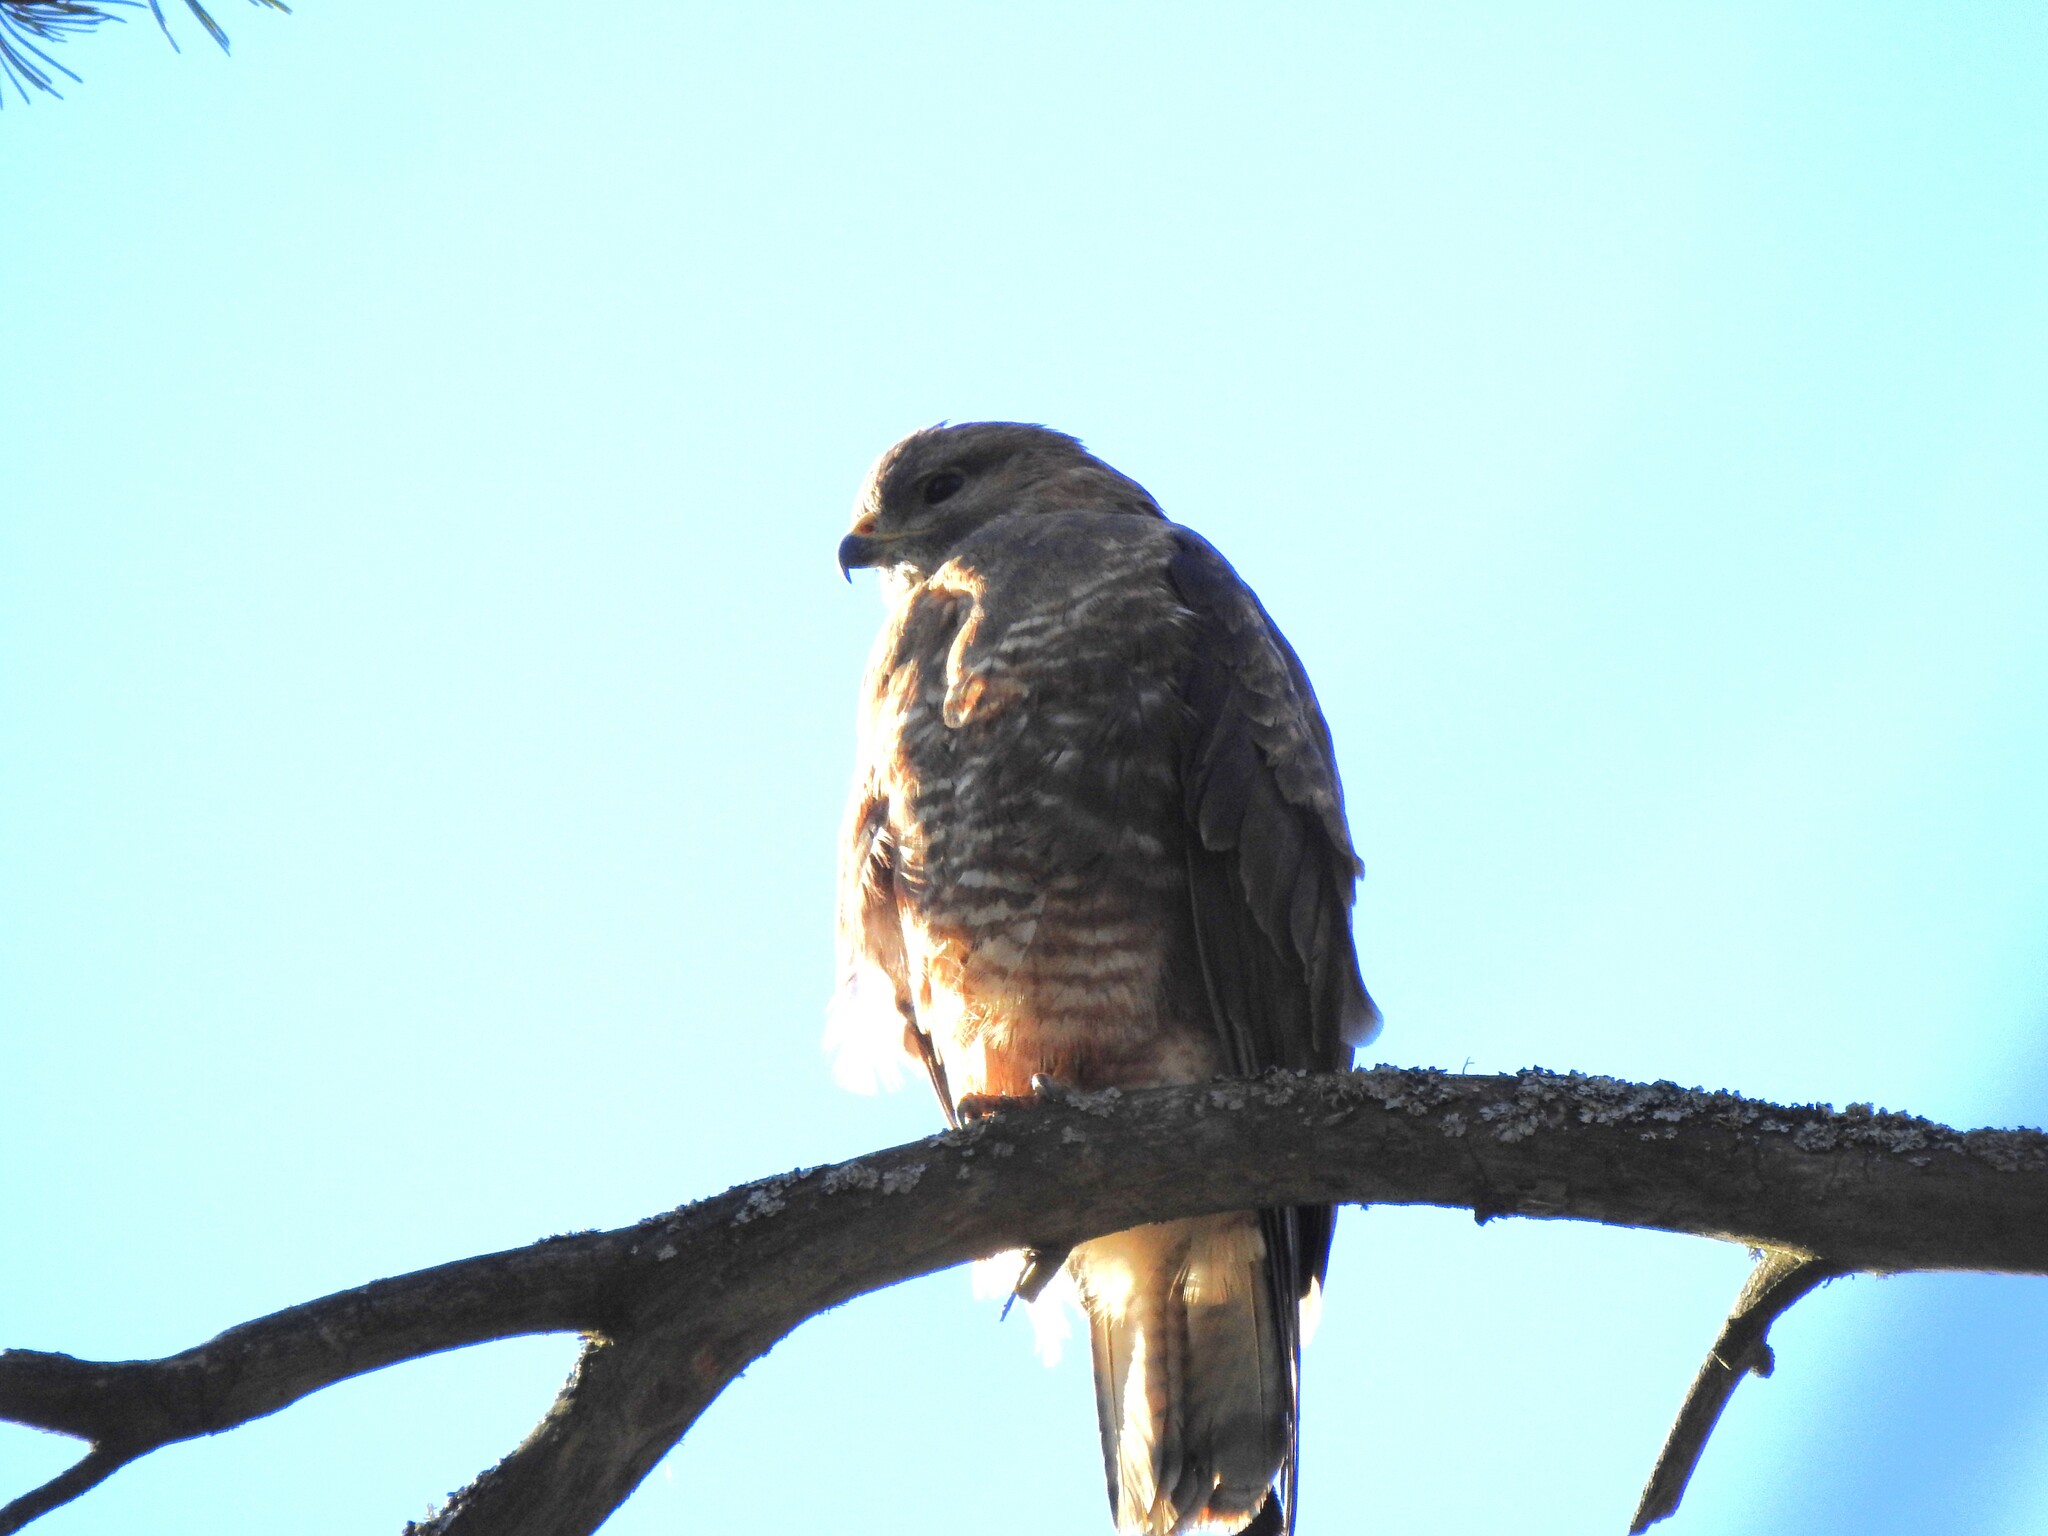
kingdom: Animalia
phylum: Chordata
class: Aves
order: Accipitriformes
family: Accipitridae
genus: Buteo
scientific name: Buteo buteo
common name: Common buzzard
